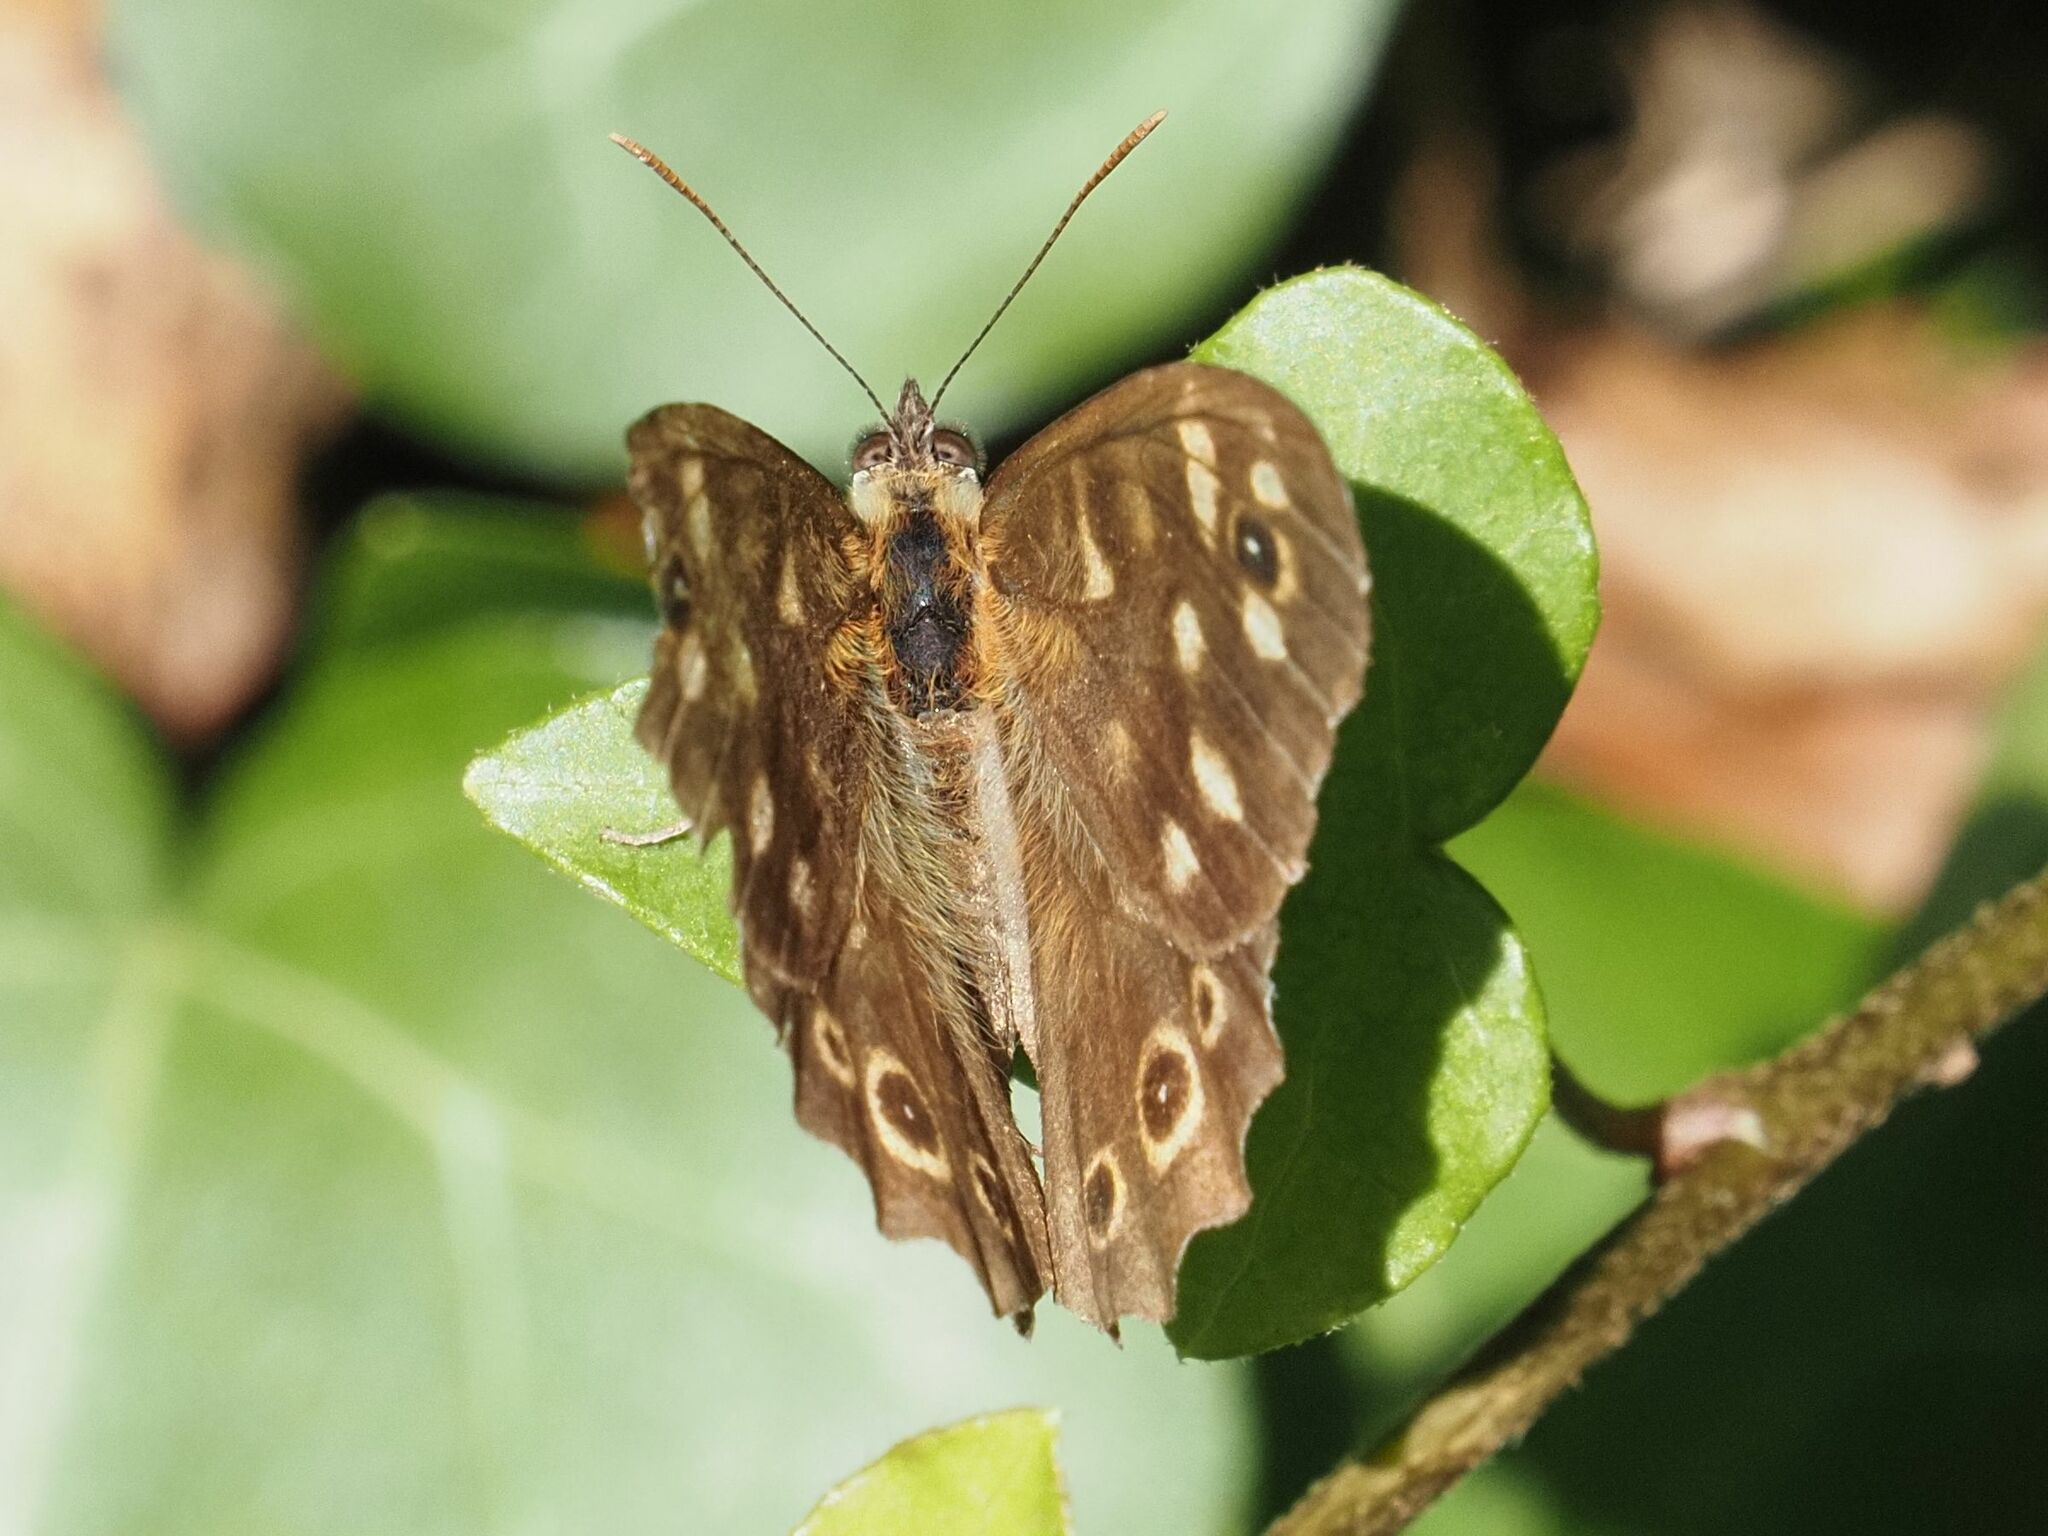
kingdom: Animalia
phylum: Arthropoda
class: Insecta
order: Lepidoptera
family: Nymphalidae
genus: Pararge
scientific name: Pararge aegeria
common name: Speckled wood
